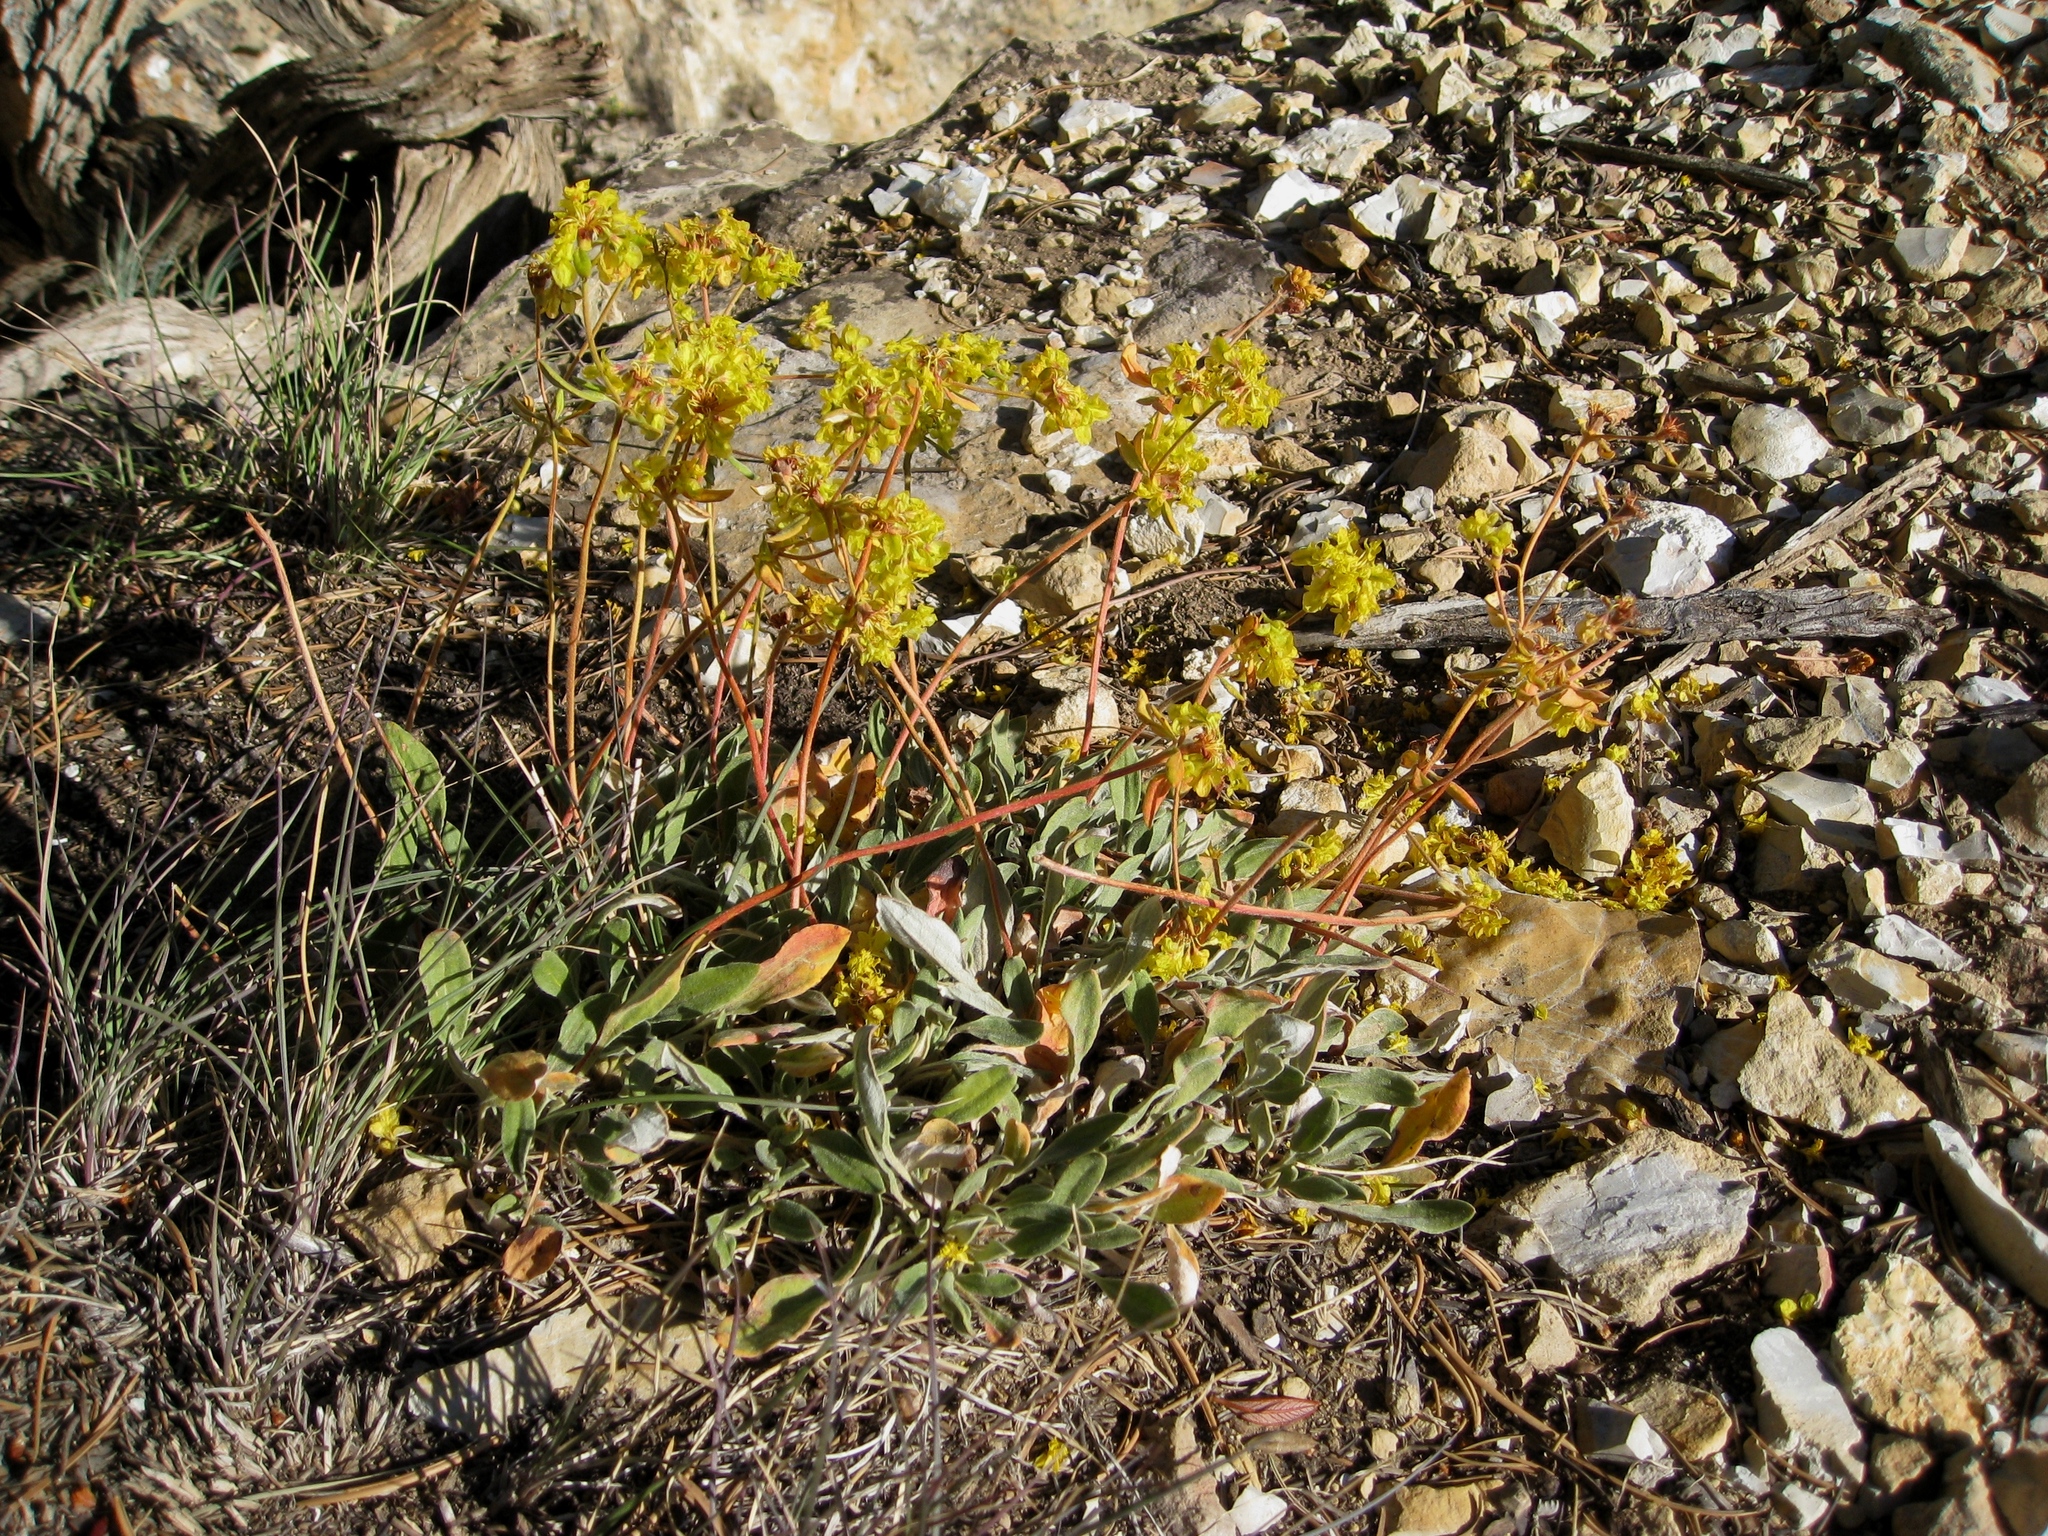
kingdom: Plantae
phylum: Tracheophyta
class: Magnoliopsida
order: Caryophyllales
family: Polygonaceae
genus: Eriogonum
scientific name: Eriogonum arcuatum
